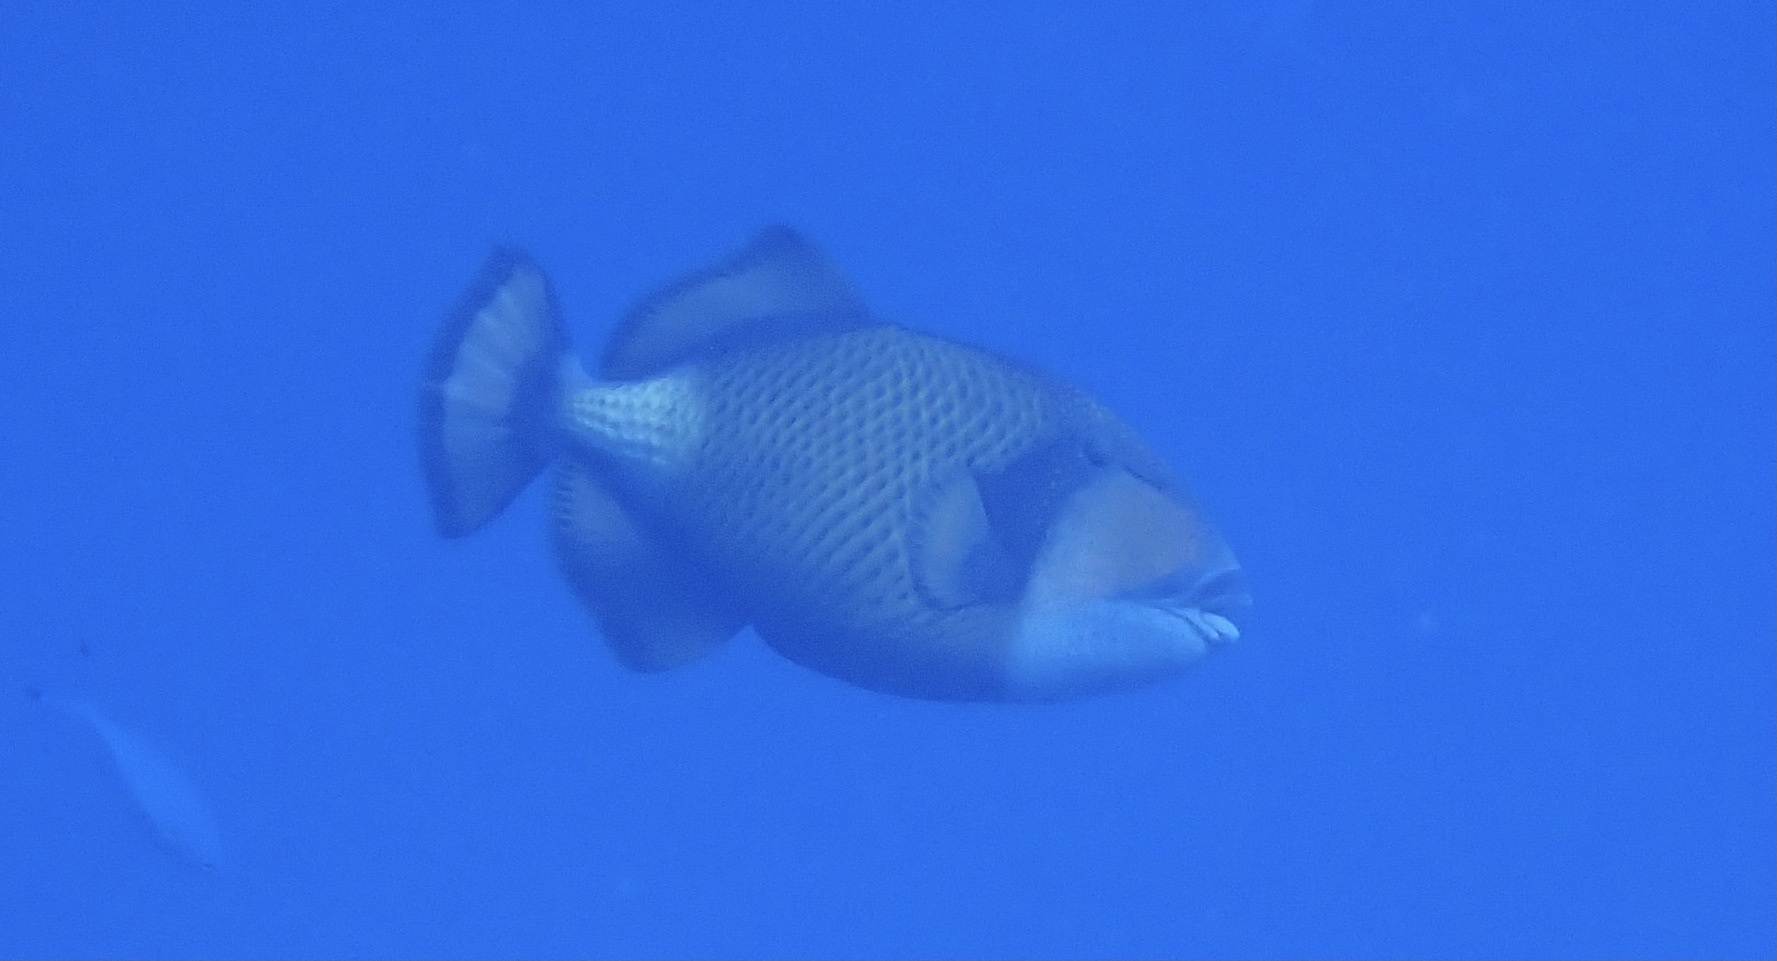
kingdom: Animalia
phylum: Chordata
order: Tetraodontiformes
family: Balistidae
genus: Balistoides
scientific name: Balistoides viridescens
